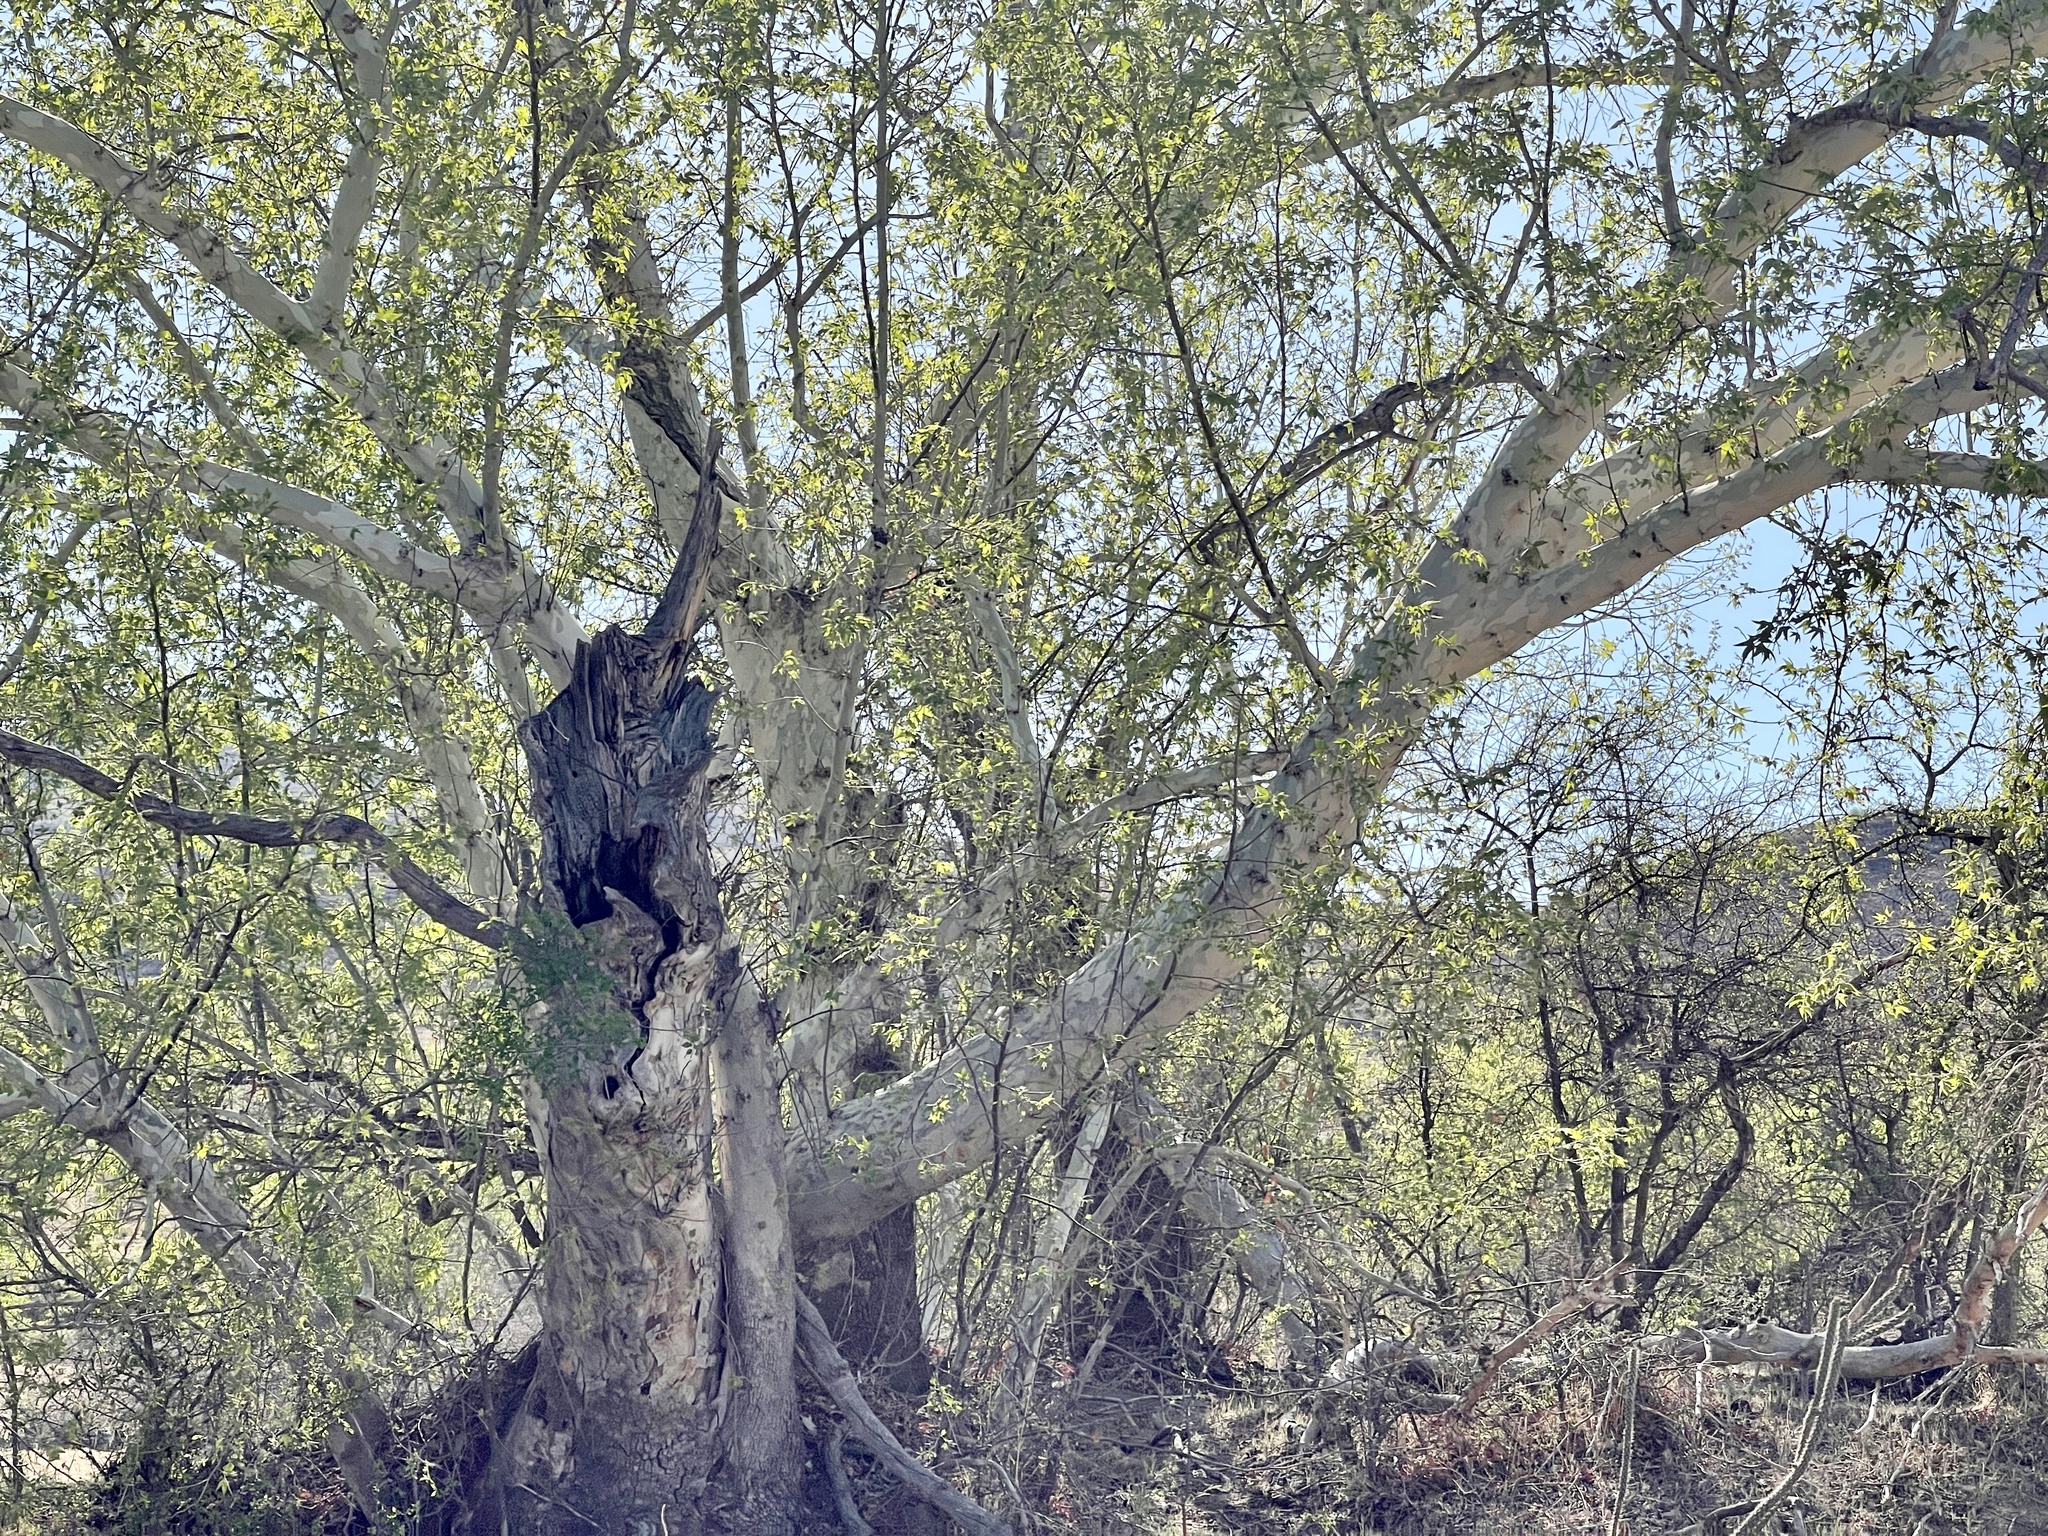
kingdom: Plantae
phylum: Tracheophyta
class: Magnoliopsida
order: Proteales
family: Platanaceae
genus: Platanus
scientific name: Platanus wrightii
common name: Arizona sycamore
